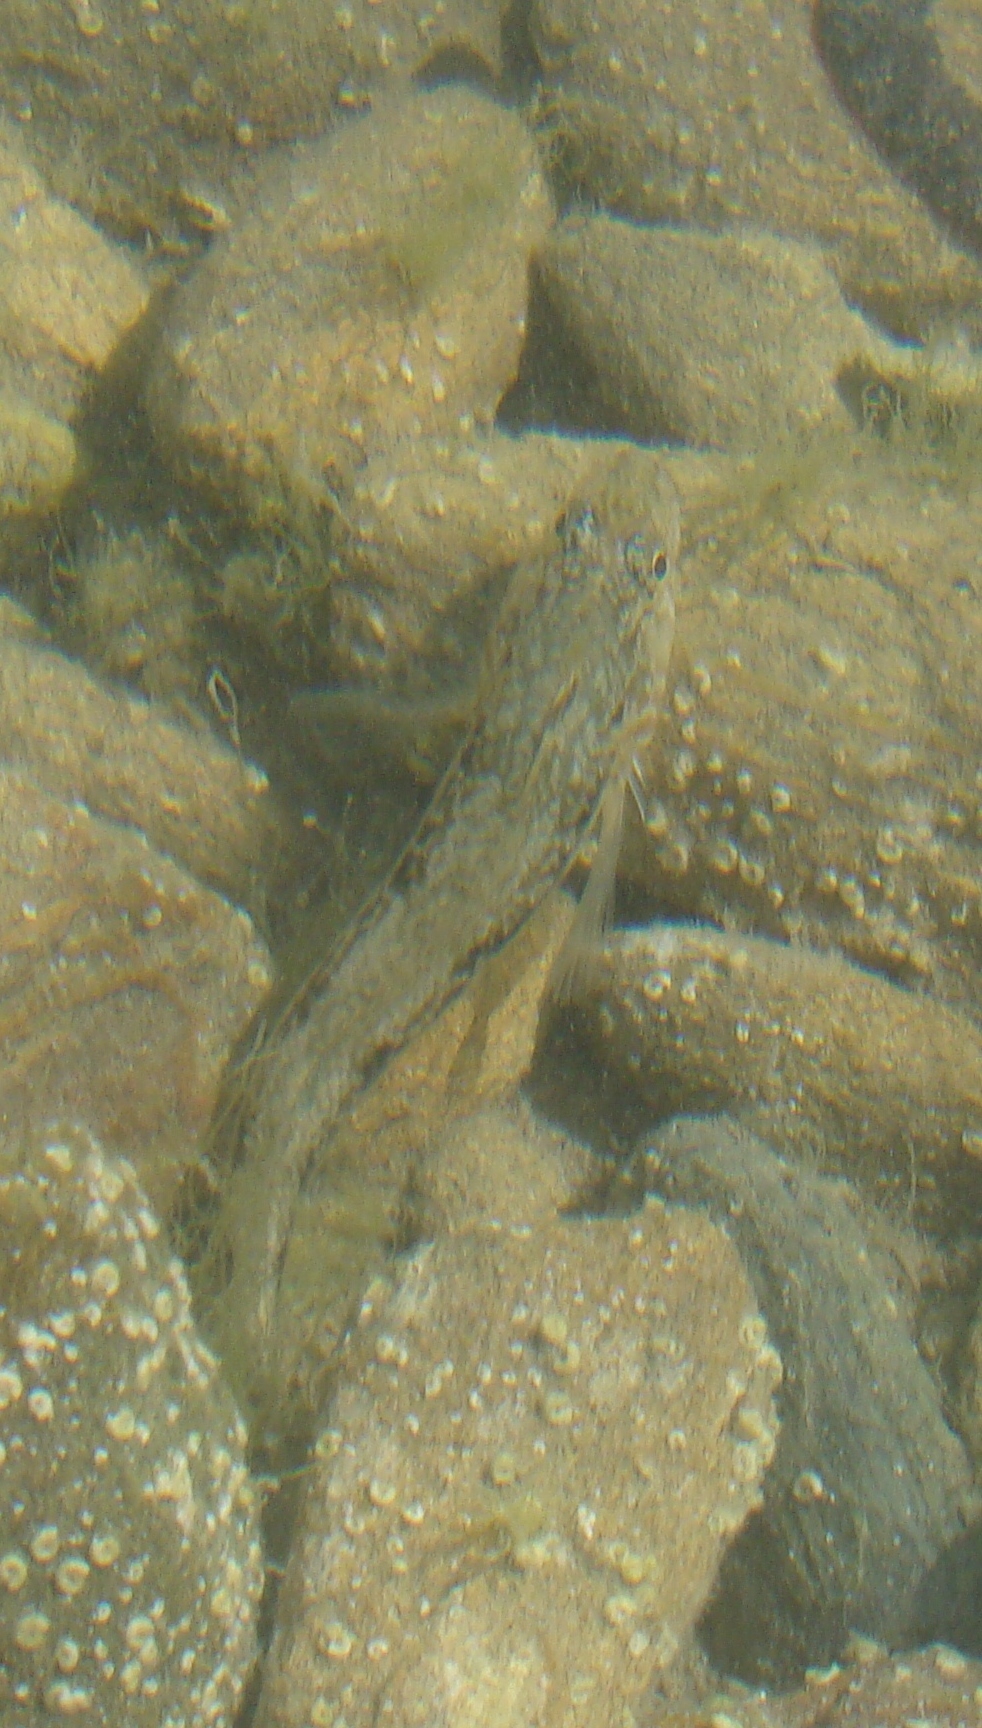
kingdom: Animalia
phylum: Chordata
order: Perciformes
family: Tripterygiidae
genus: Forsterygion
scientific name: Forsterygion nigripenne
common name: Cockabully
